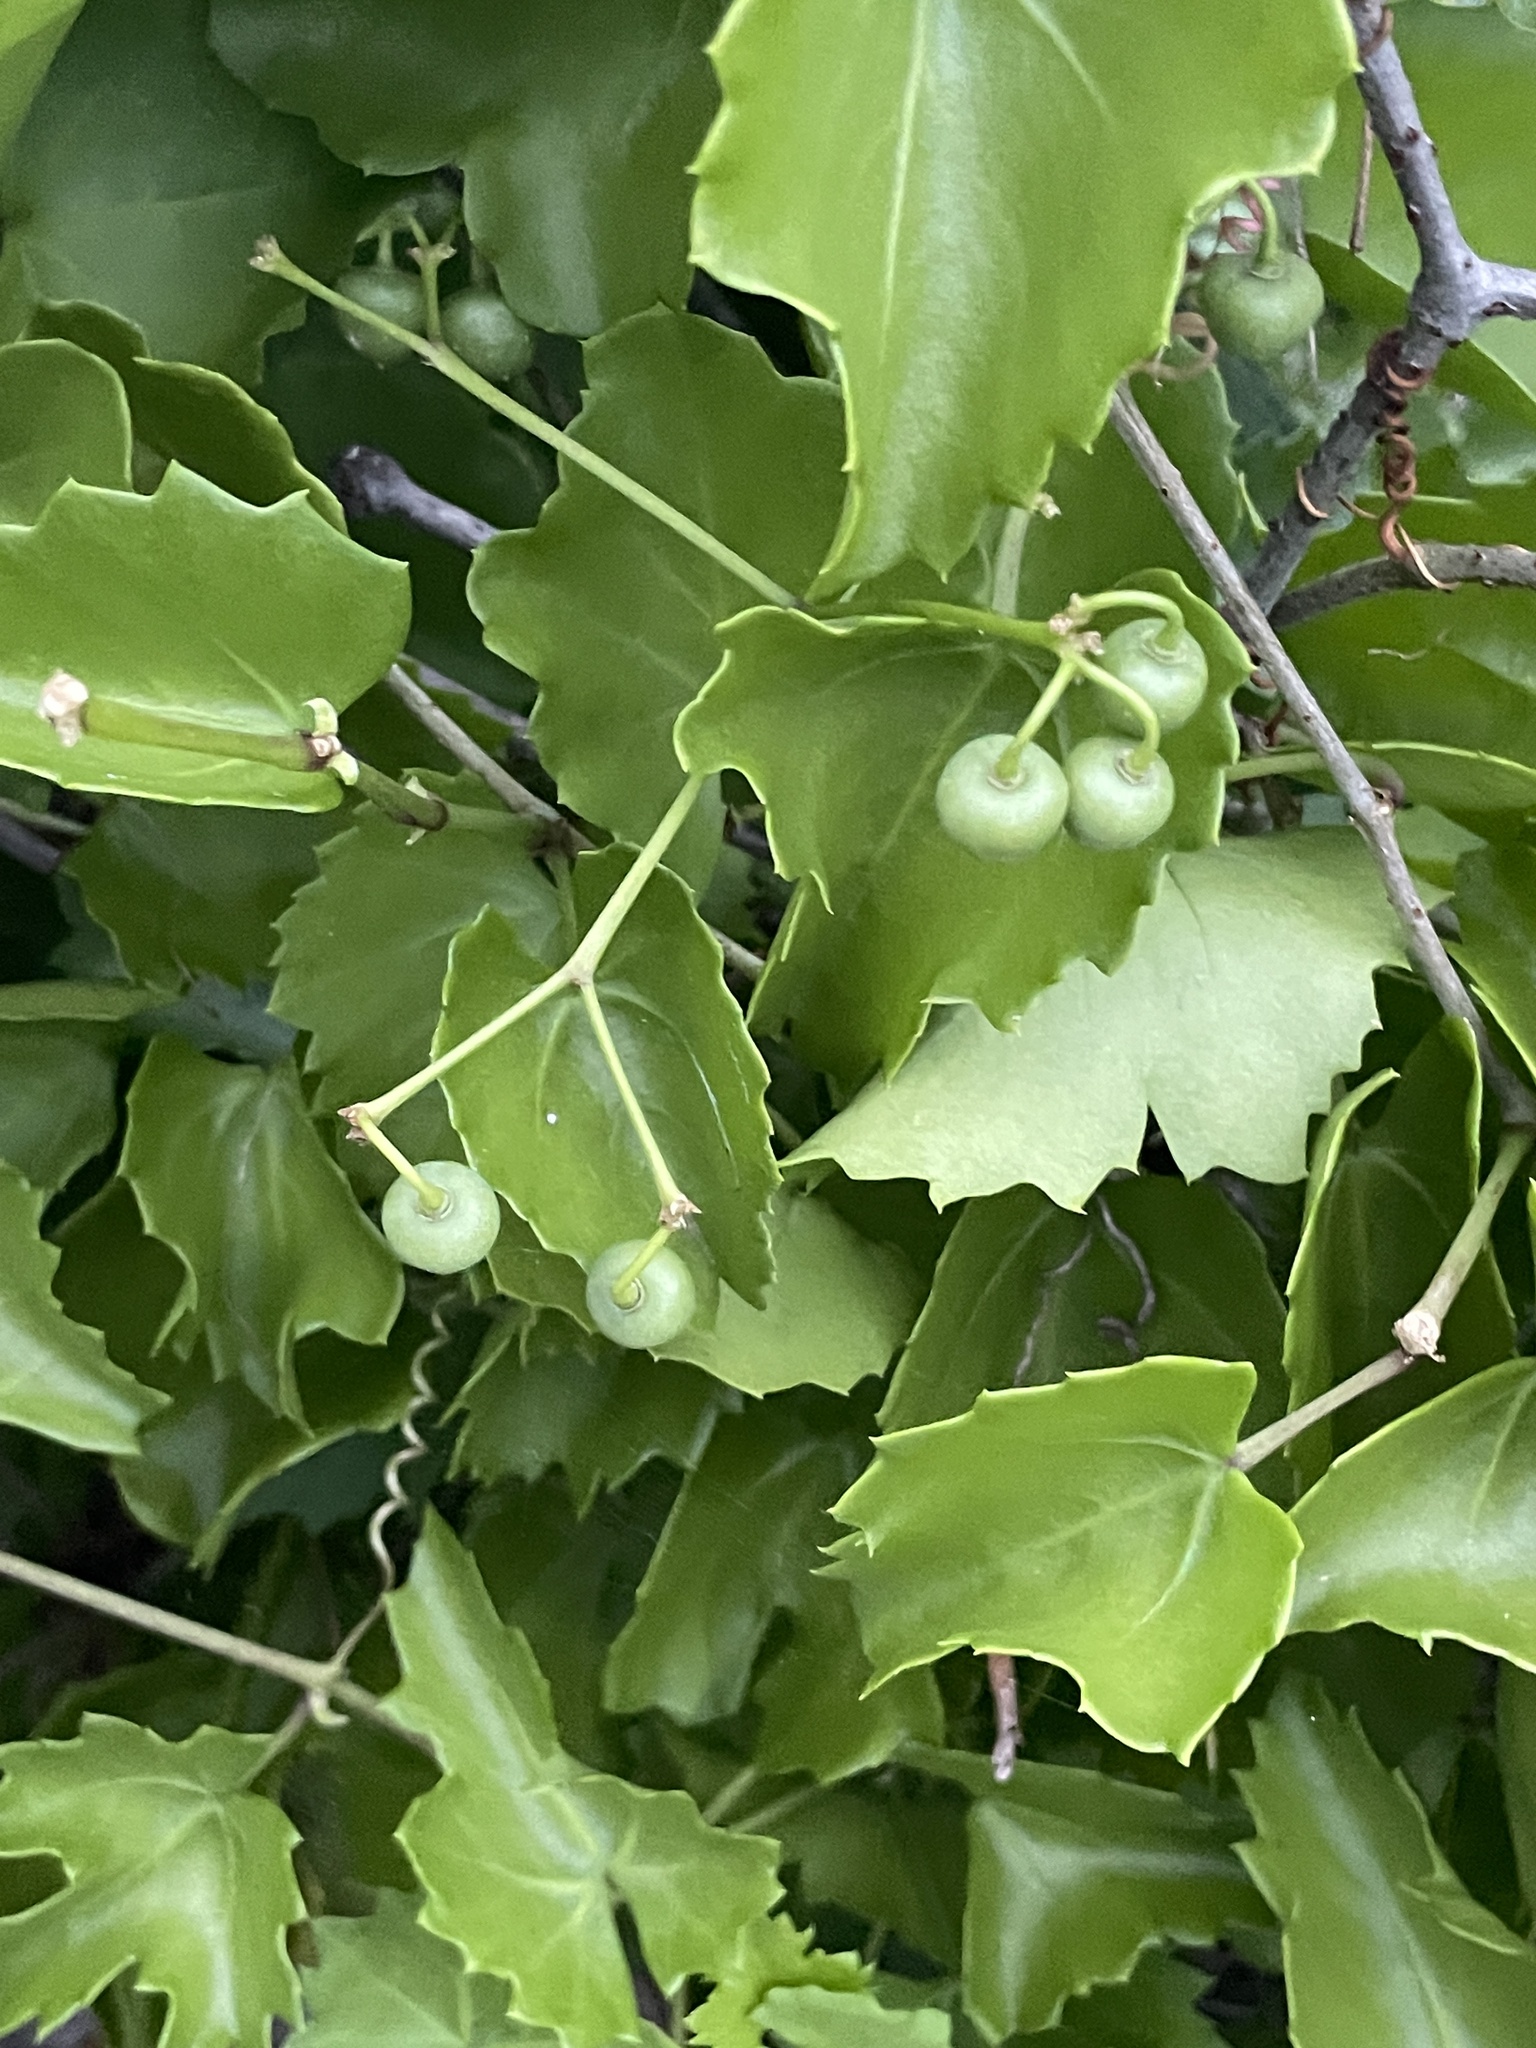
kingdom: Plantae
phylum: Tracheophyta
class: Magnoliopsida
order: Vitales
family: Vitaceae
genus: Cissus
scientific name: Cissus trifoliata
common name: Vine-sorrel
